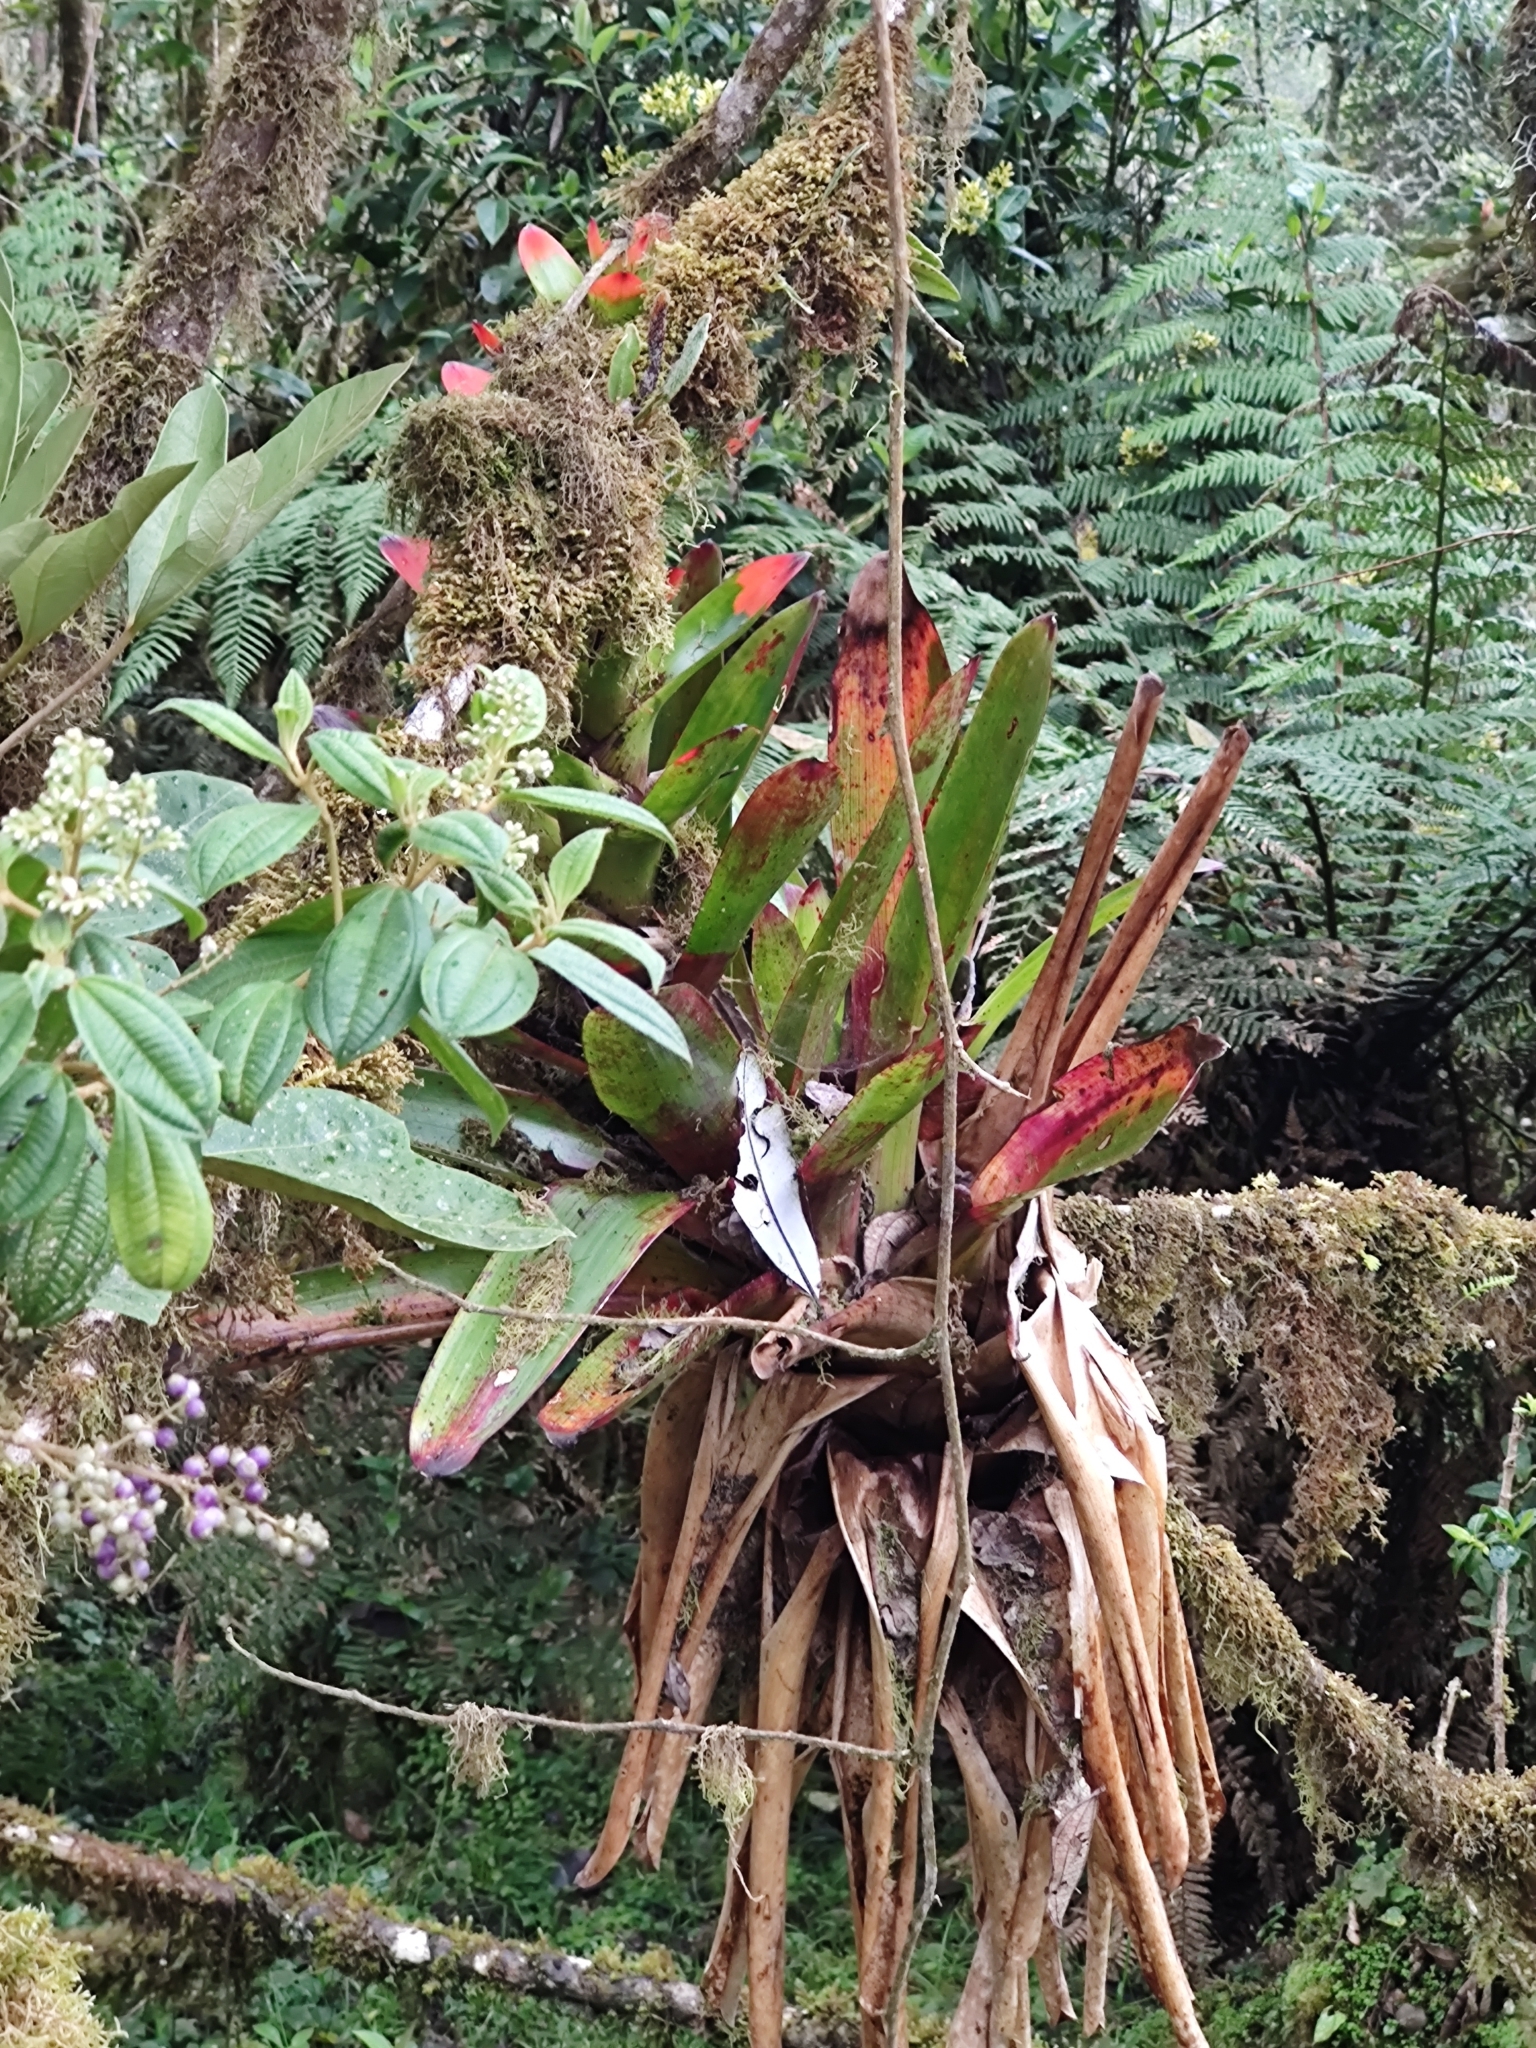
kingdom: Plantae
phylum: Tracheophyta
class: Liliopsida
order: Poales
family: Bromeliaceae
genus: Guzmania
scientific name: Guzmania gloriosa
